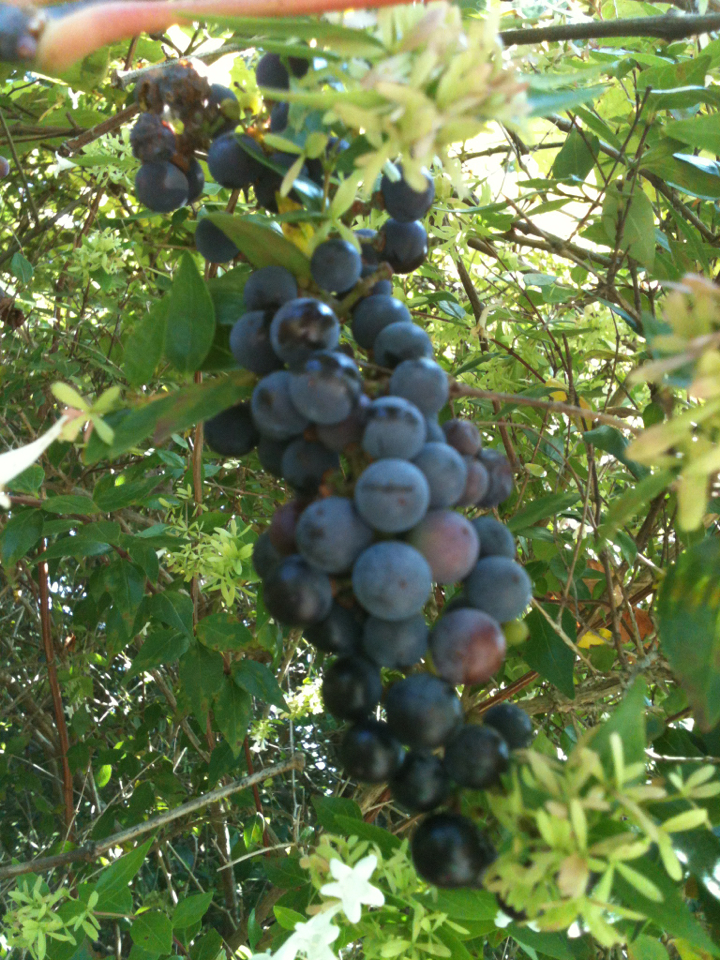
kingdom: Plantae
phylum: Tracheophyta
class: Magnoliopsida
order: Vitales
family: Vitaceae
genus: Vitis
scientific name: Vitis vulpina
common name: Frost grape
